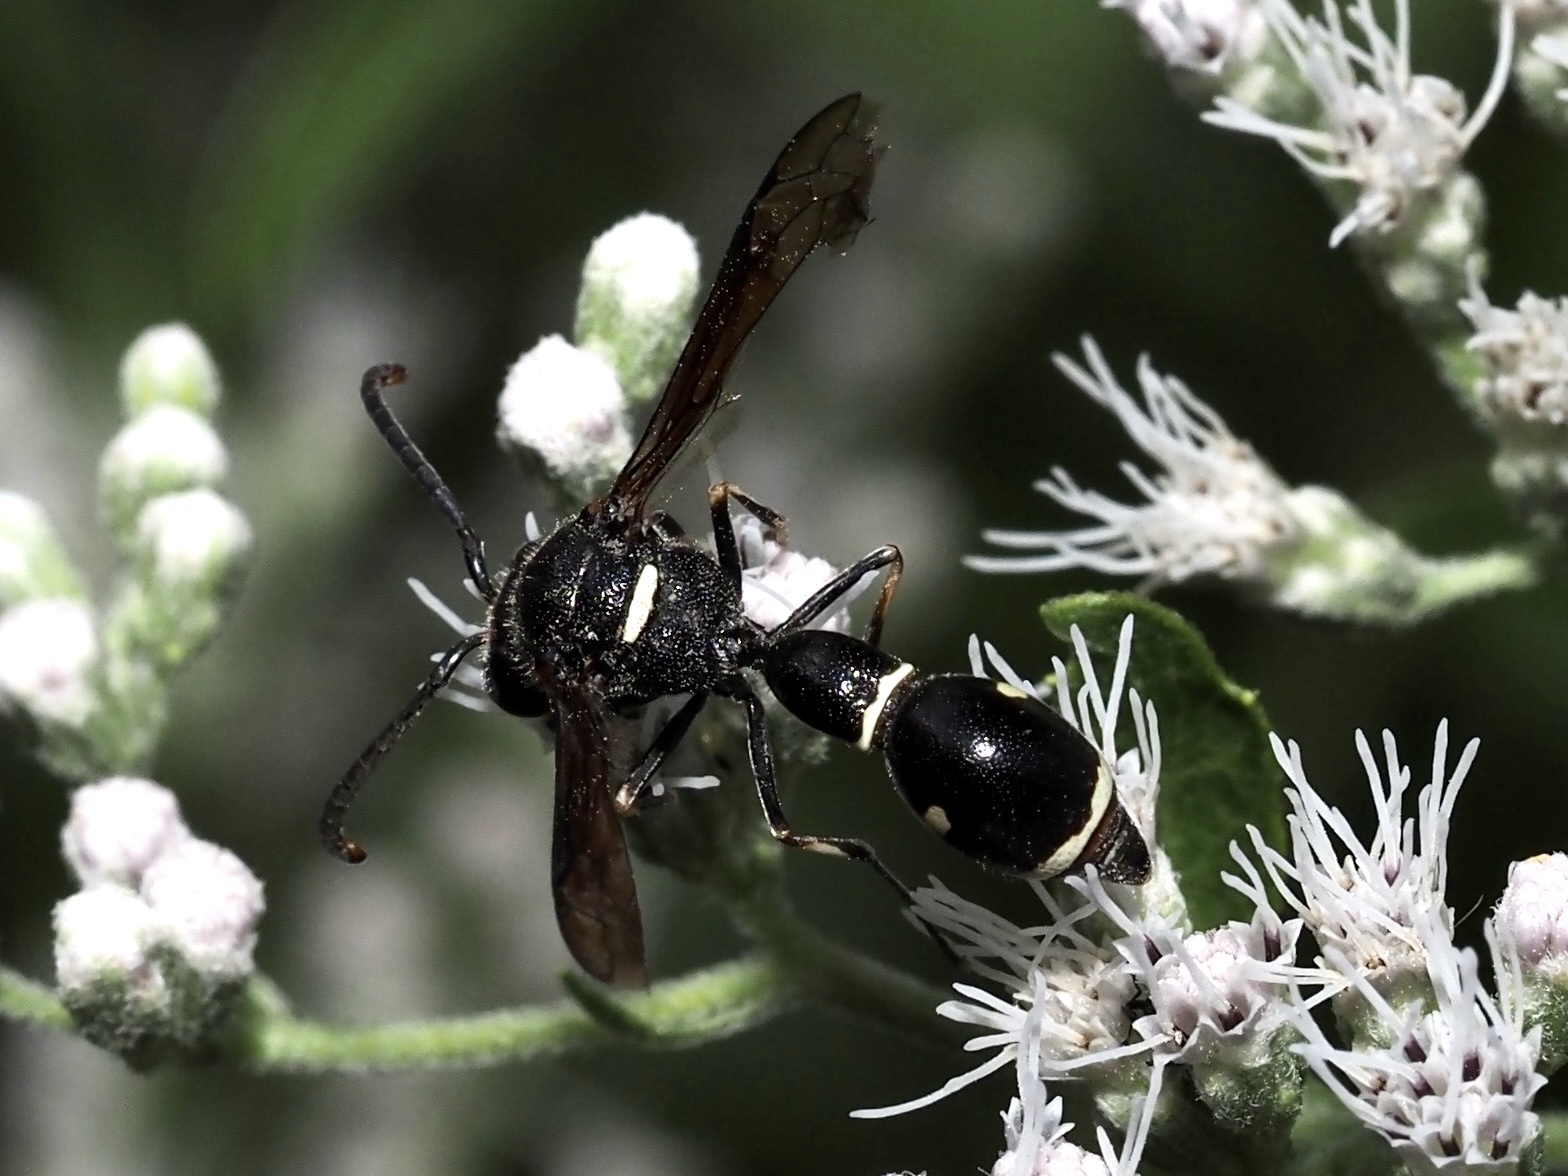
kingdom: Animalia
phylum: Arthropoda
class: Insecta
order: Hymenoptera
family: Vespidae
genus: Eumenes
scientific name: Eumenes fraternus
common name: Fraternal potter wasp
